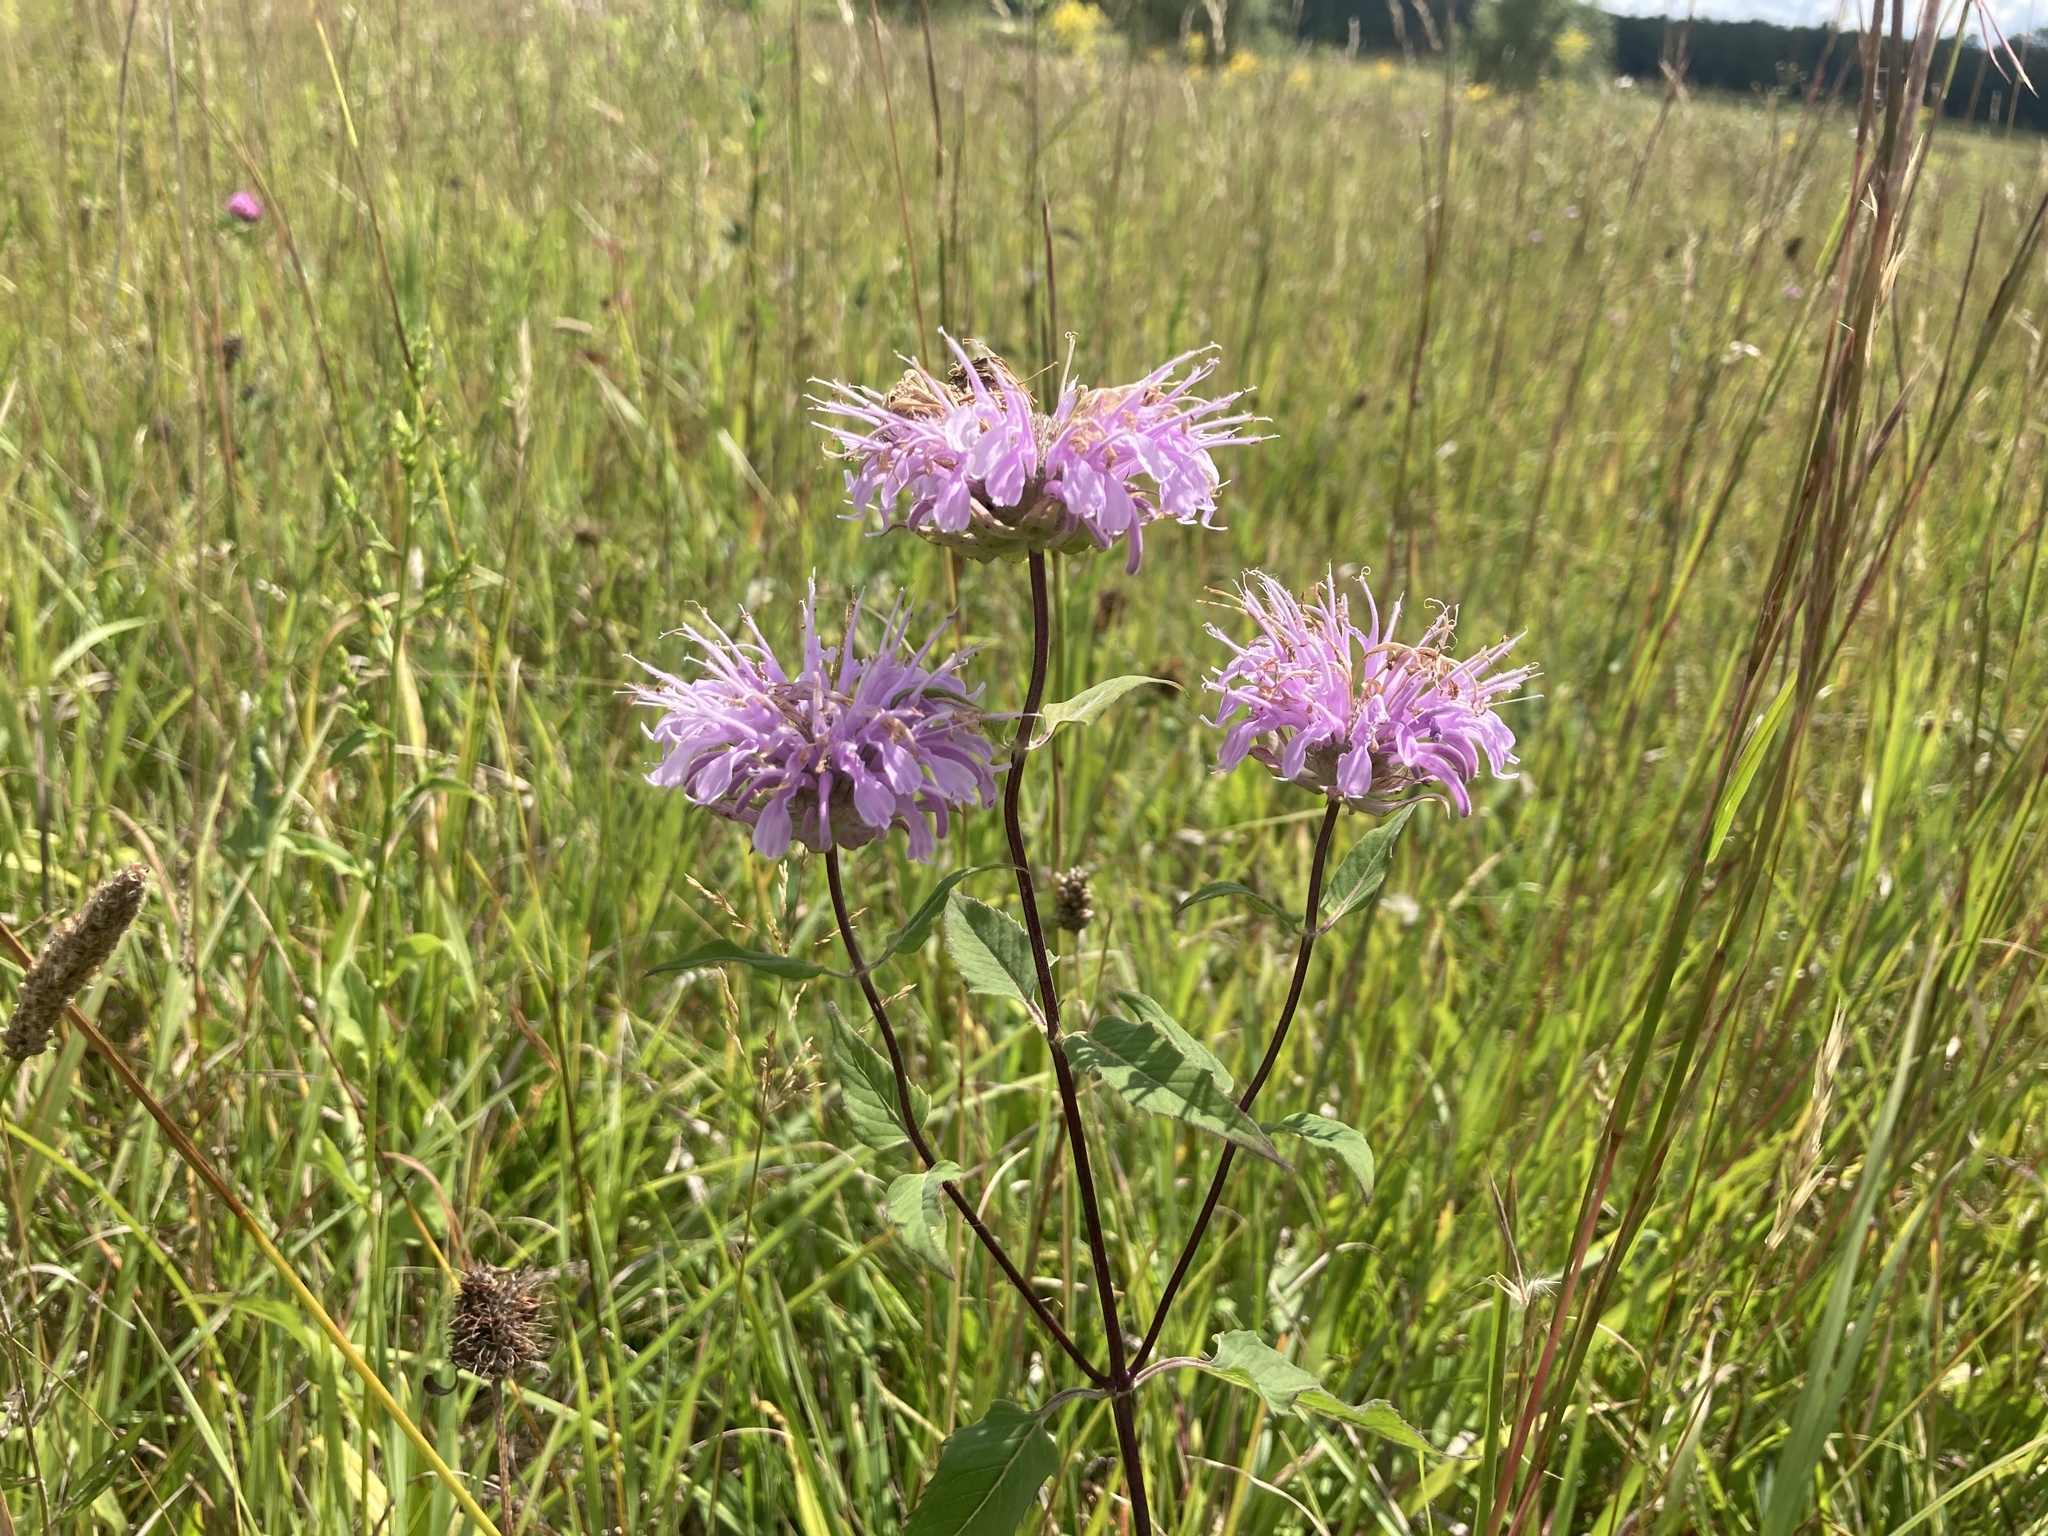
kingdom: Plantae
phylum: Tracheophyta
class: Magnoliopsida
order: Lamiales
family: Lamiaceae
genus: Monarda
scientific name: Monarda fistulosa
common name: Purple beebalm
